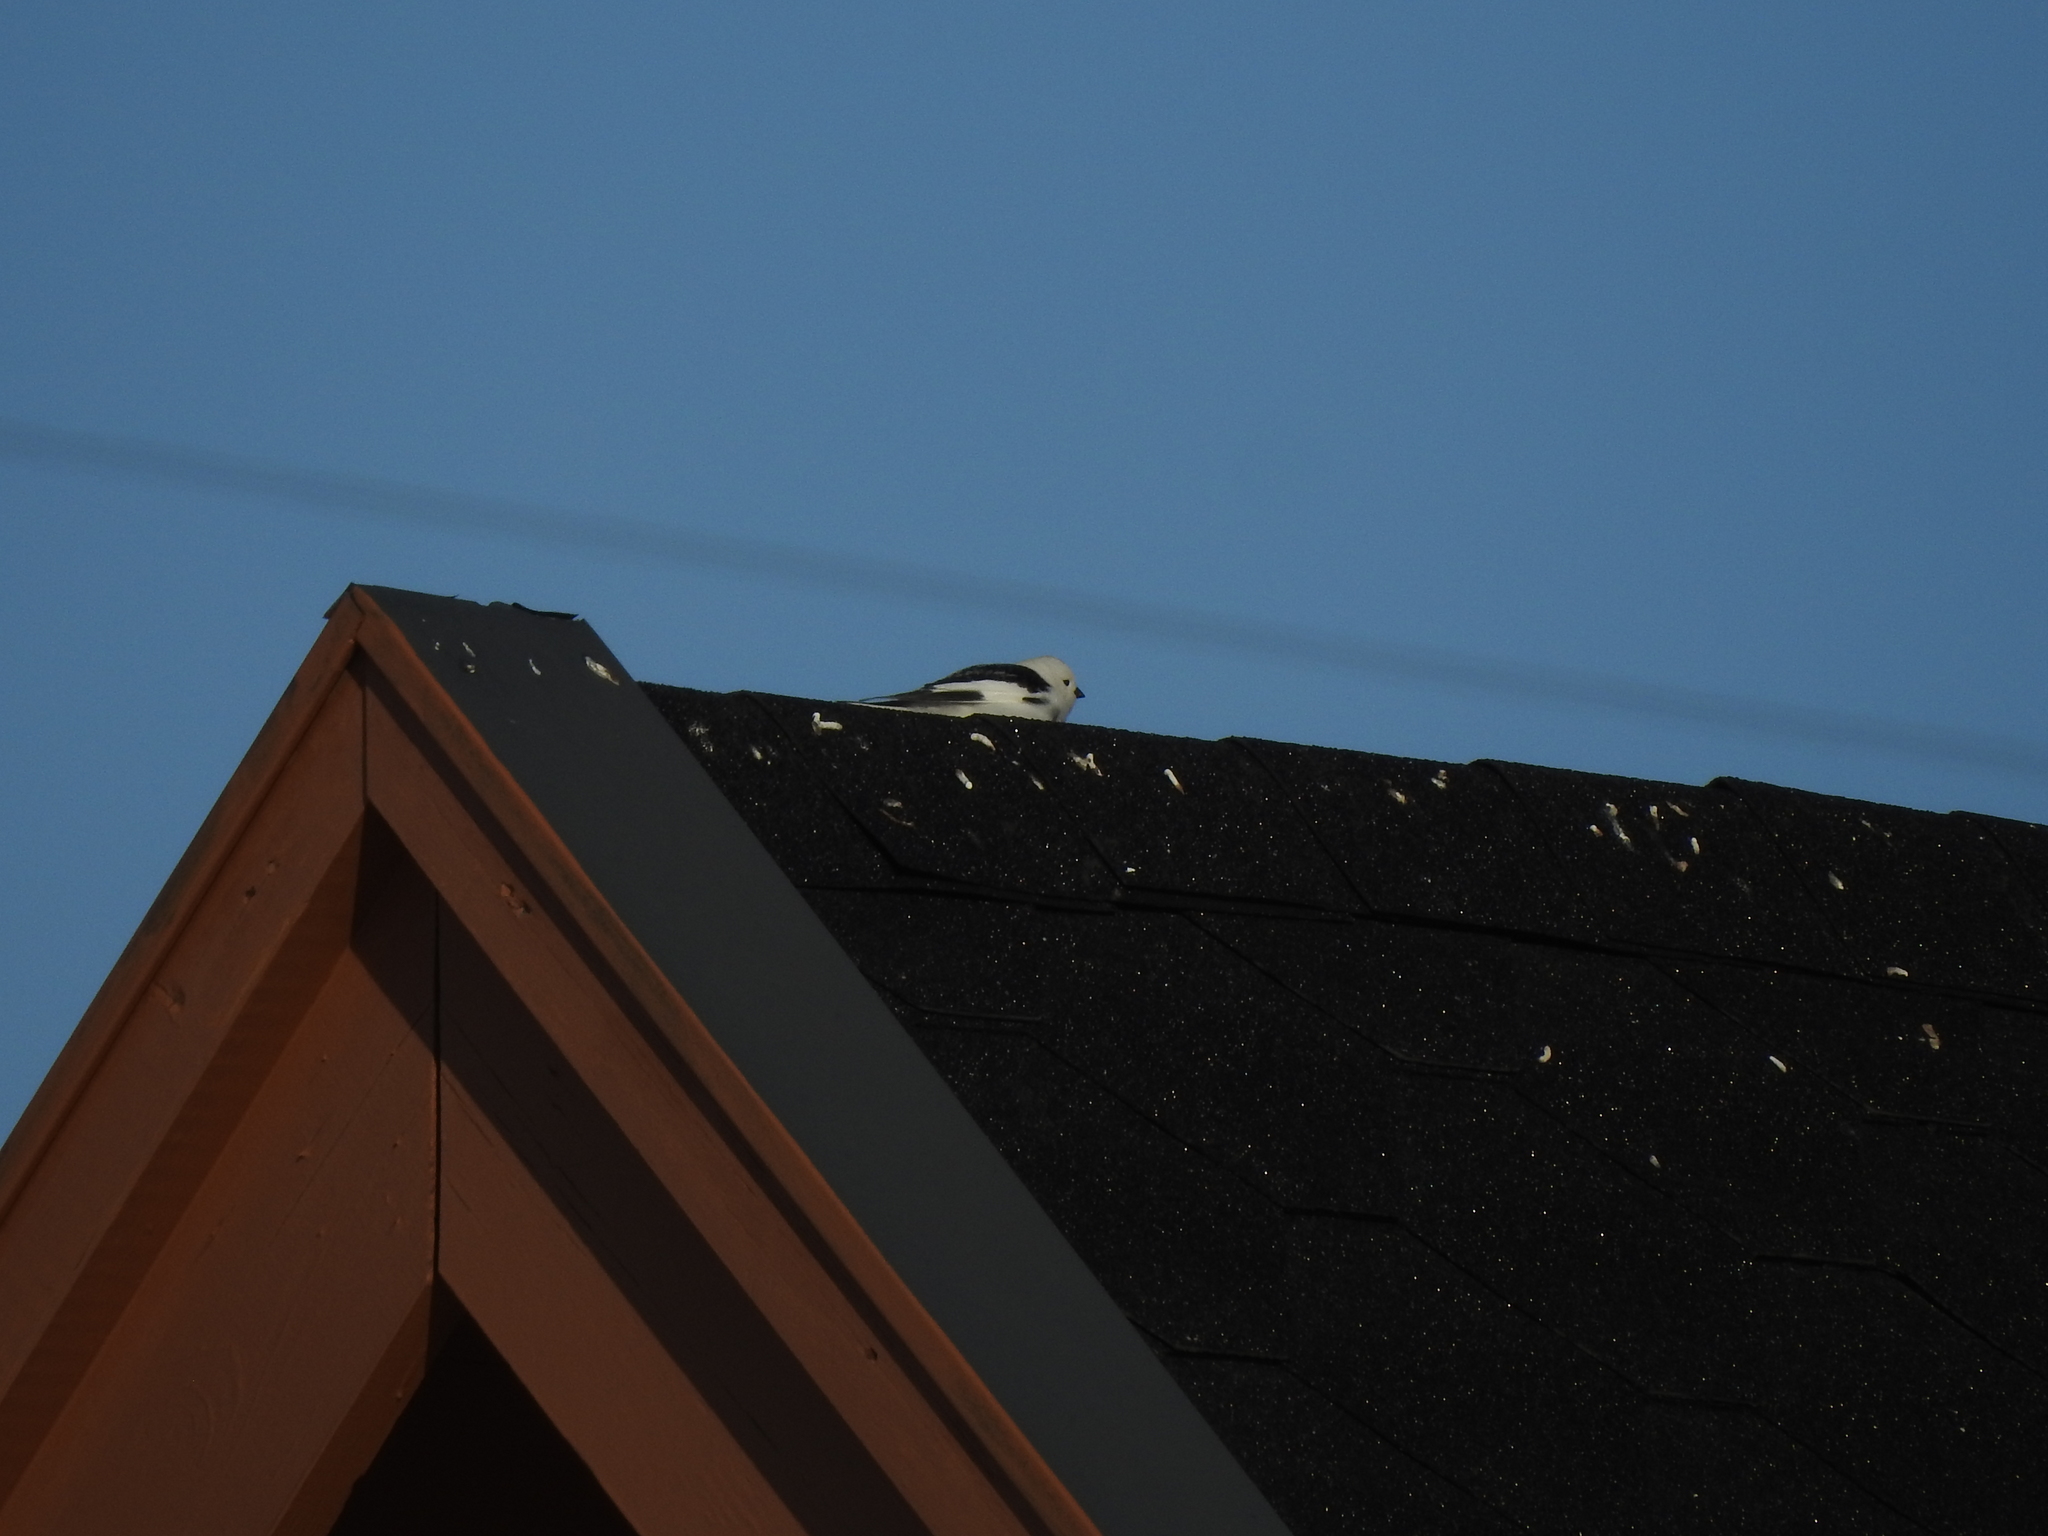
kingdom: Animalia
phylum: Chordata
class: Aves
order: Passeriformes
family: Calcariidae
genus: Plectrophenax
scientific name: Plectrophenax nivalis
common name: Snow bunting
